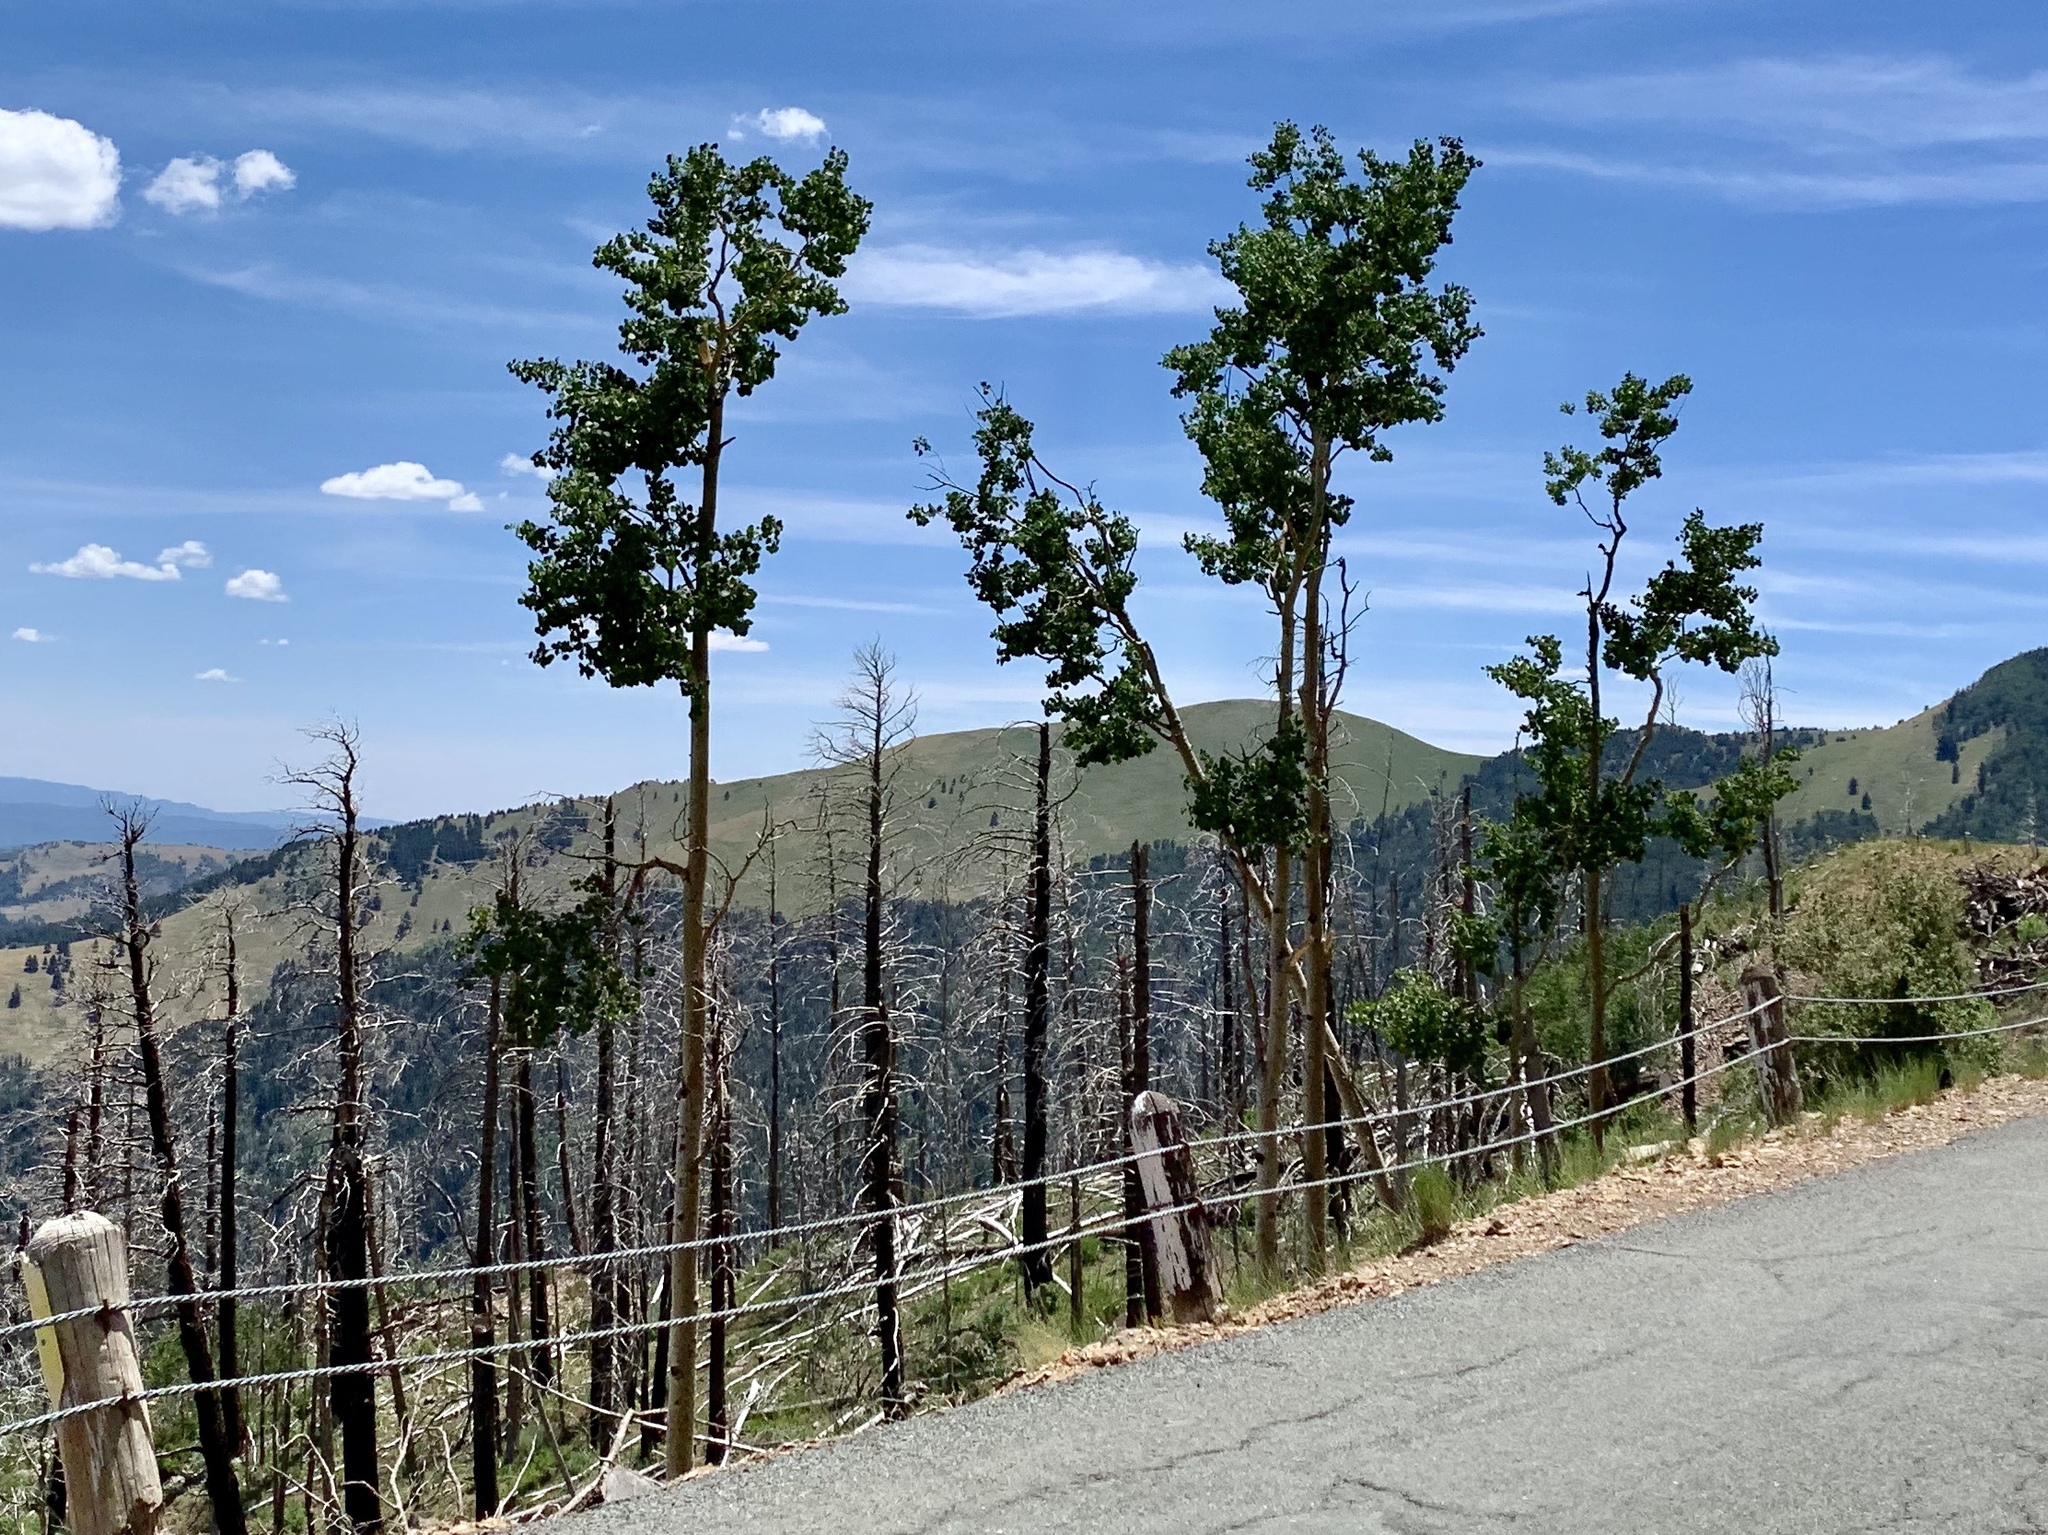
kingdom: Plantae
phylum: Tracheophyta
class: Magnoliopsida
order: Malpighiales
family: Salicaceae
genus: Populus
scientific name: Populus tremuloides
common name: Quaking aspen
